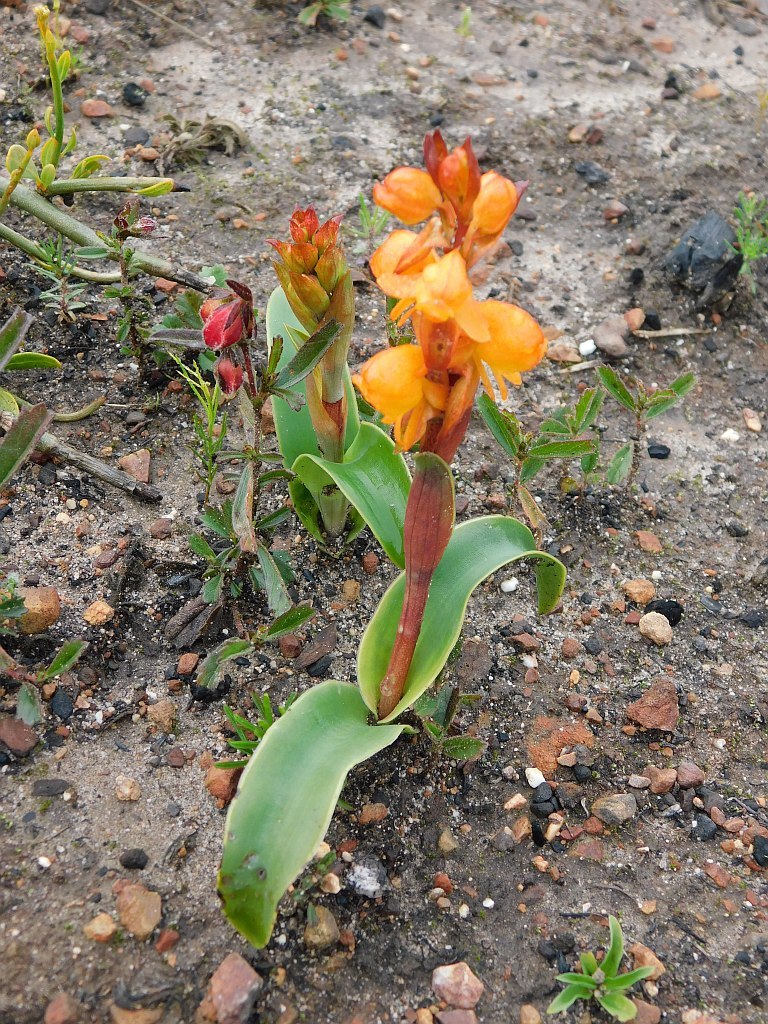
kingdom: Plantae
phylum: Tracheophyta
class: Liliopsida
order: Asparagales
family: Orchidaceae
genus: Satyrium
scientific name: Satyrium coriifolium
